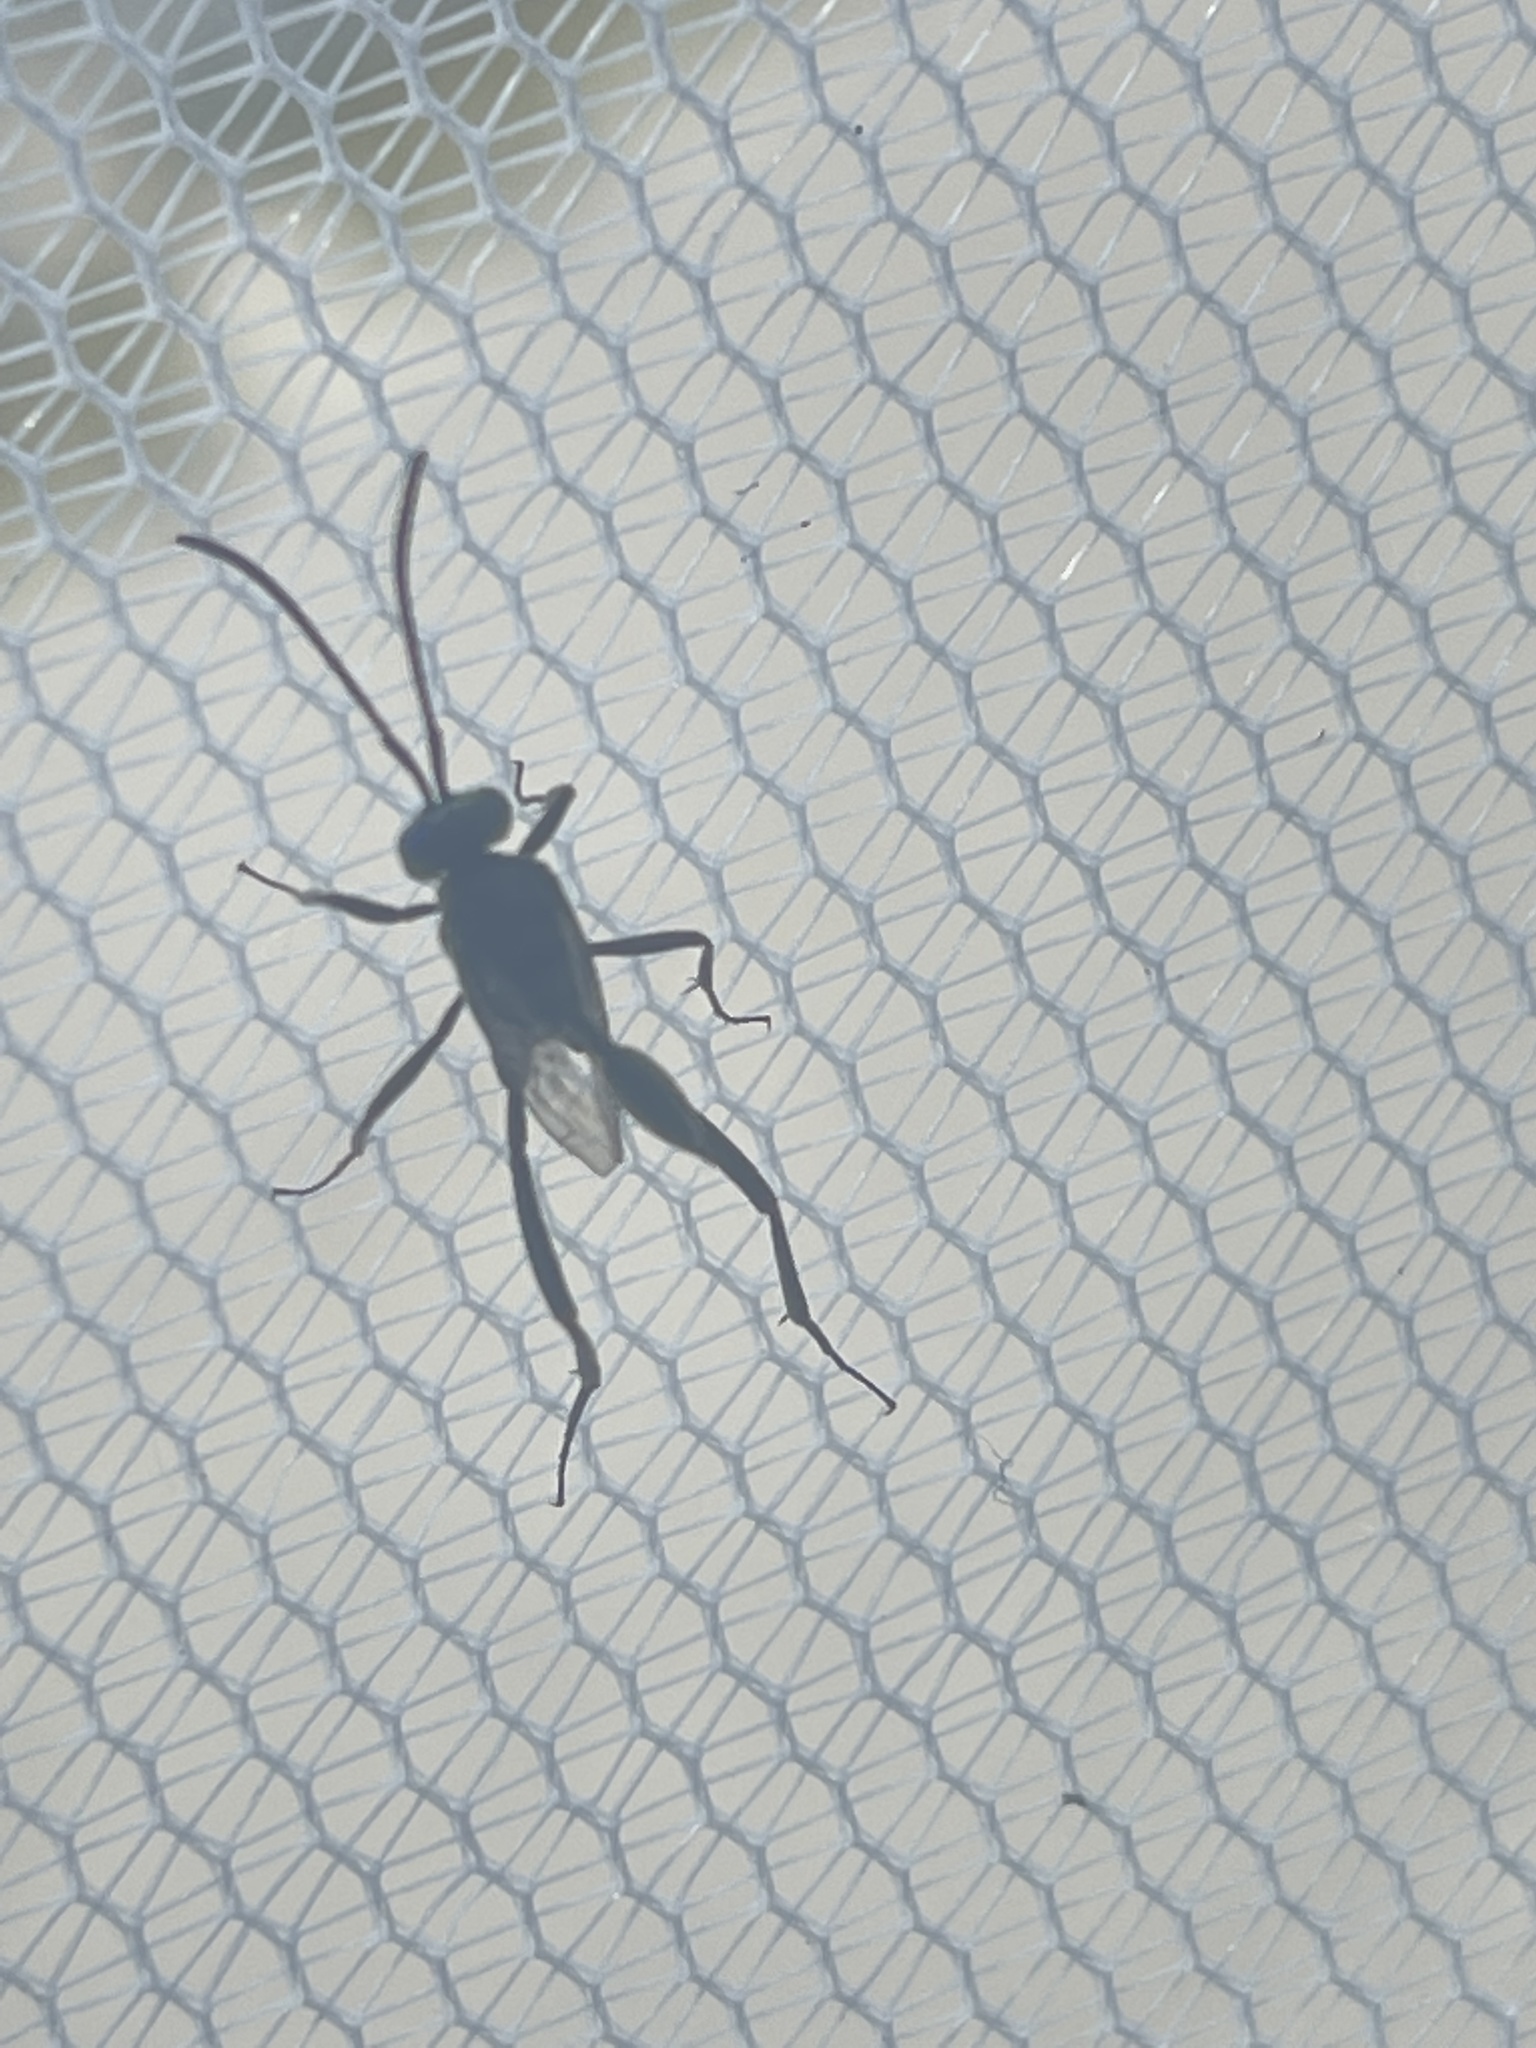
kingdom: Animalia
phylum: Arthropoda
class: Insecta
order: Hymenoptera
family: Evaniidae
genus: Evania
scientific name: Evania appendigaster
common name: Ensign wasp
